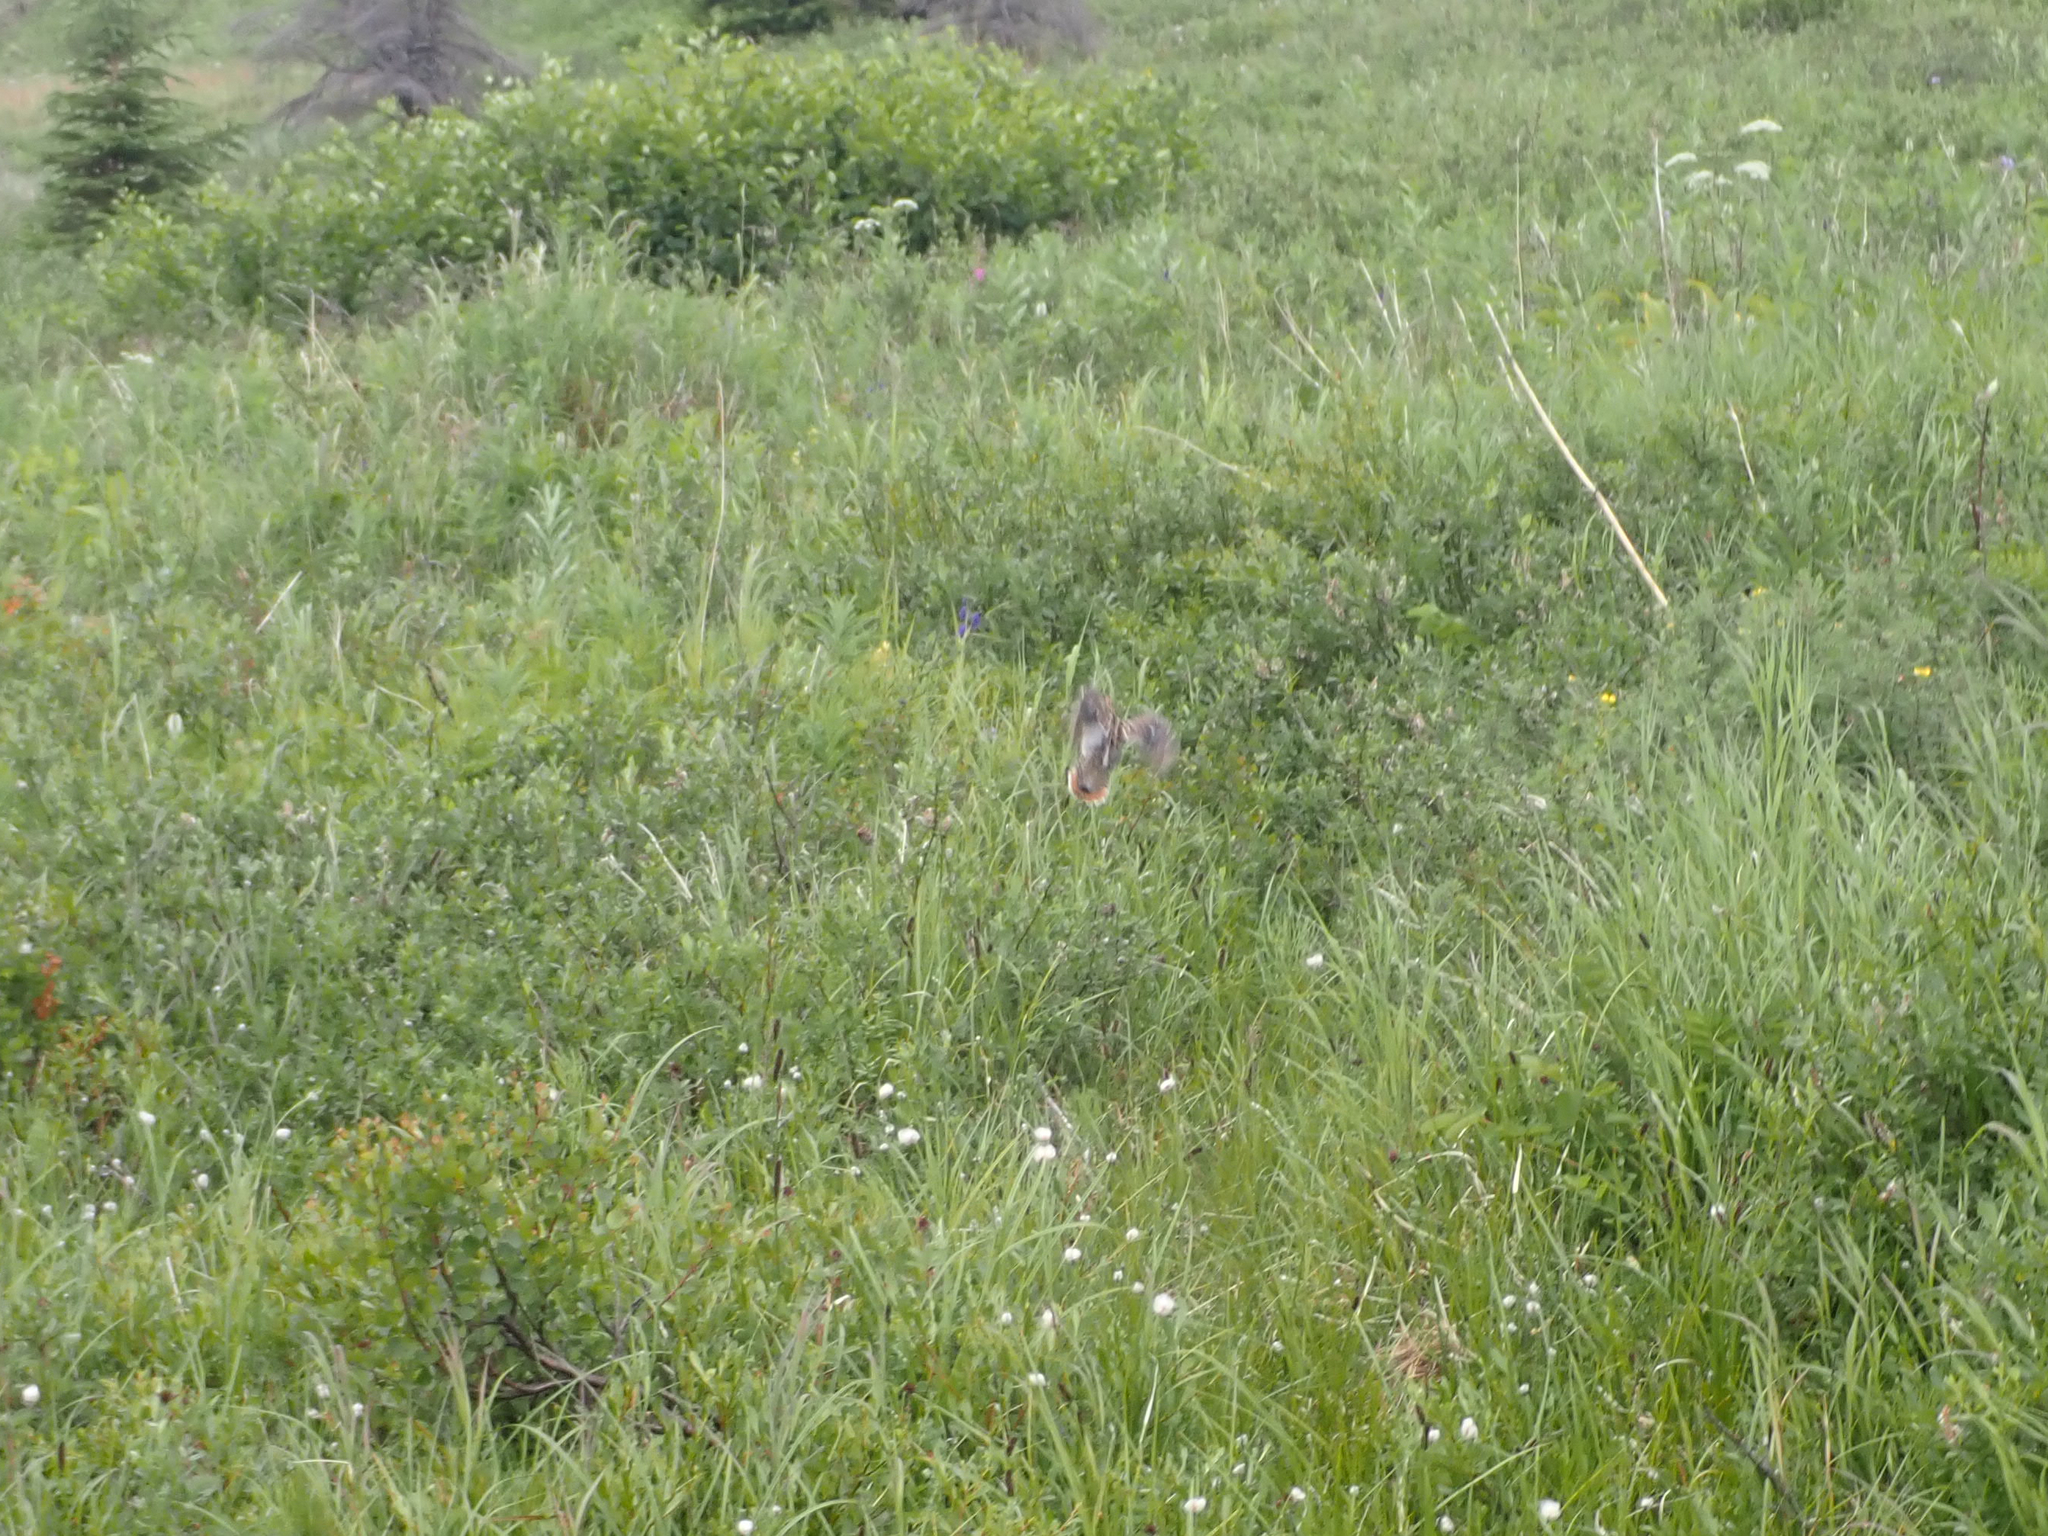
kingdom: Animalia
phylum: Chordata
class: Aves
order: Charadriiformes
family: Scolopacidae
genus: Gallinago
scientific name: Gallinago delicata
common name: Wilson's snipe
